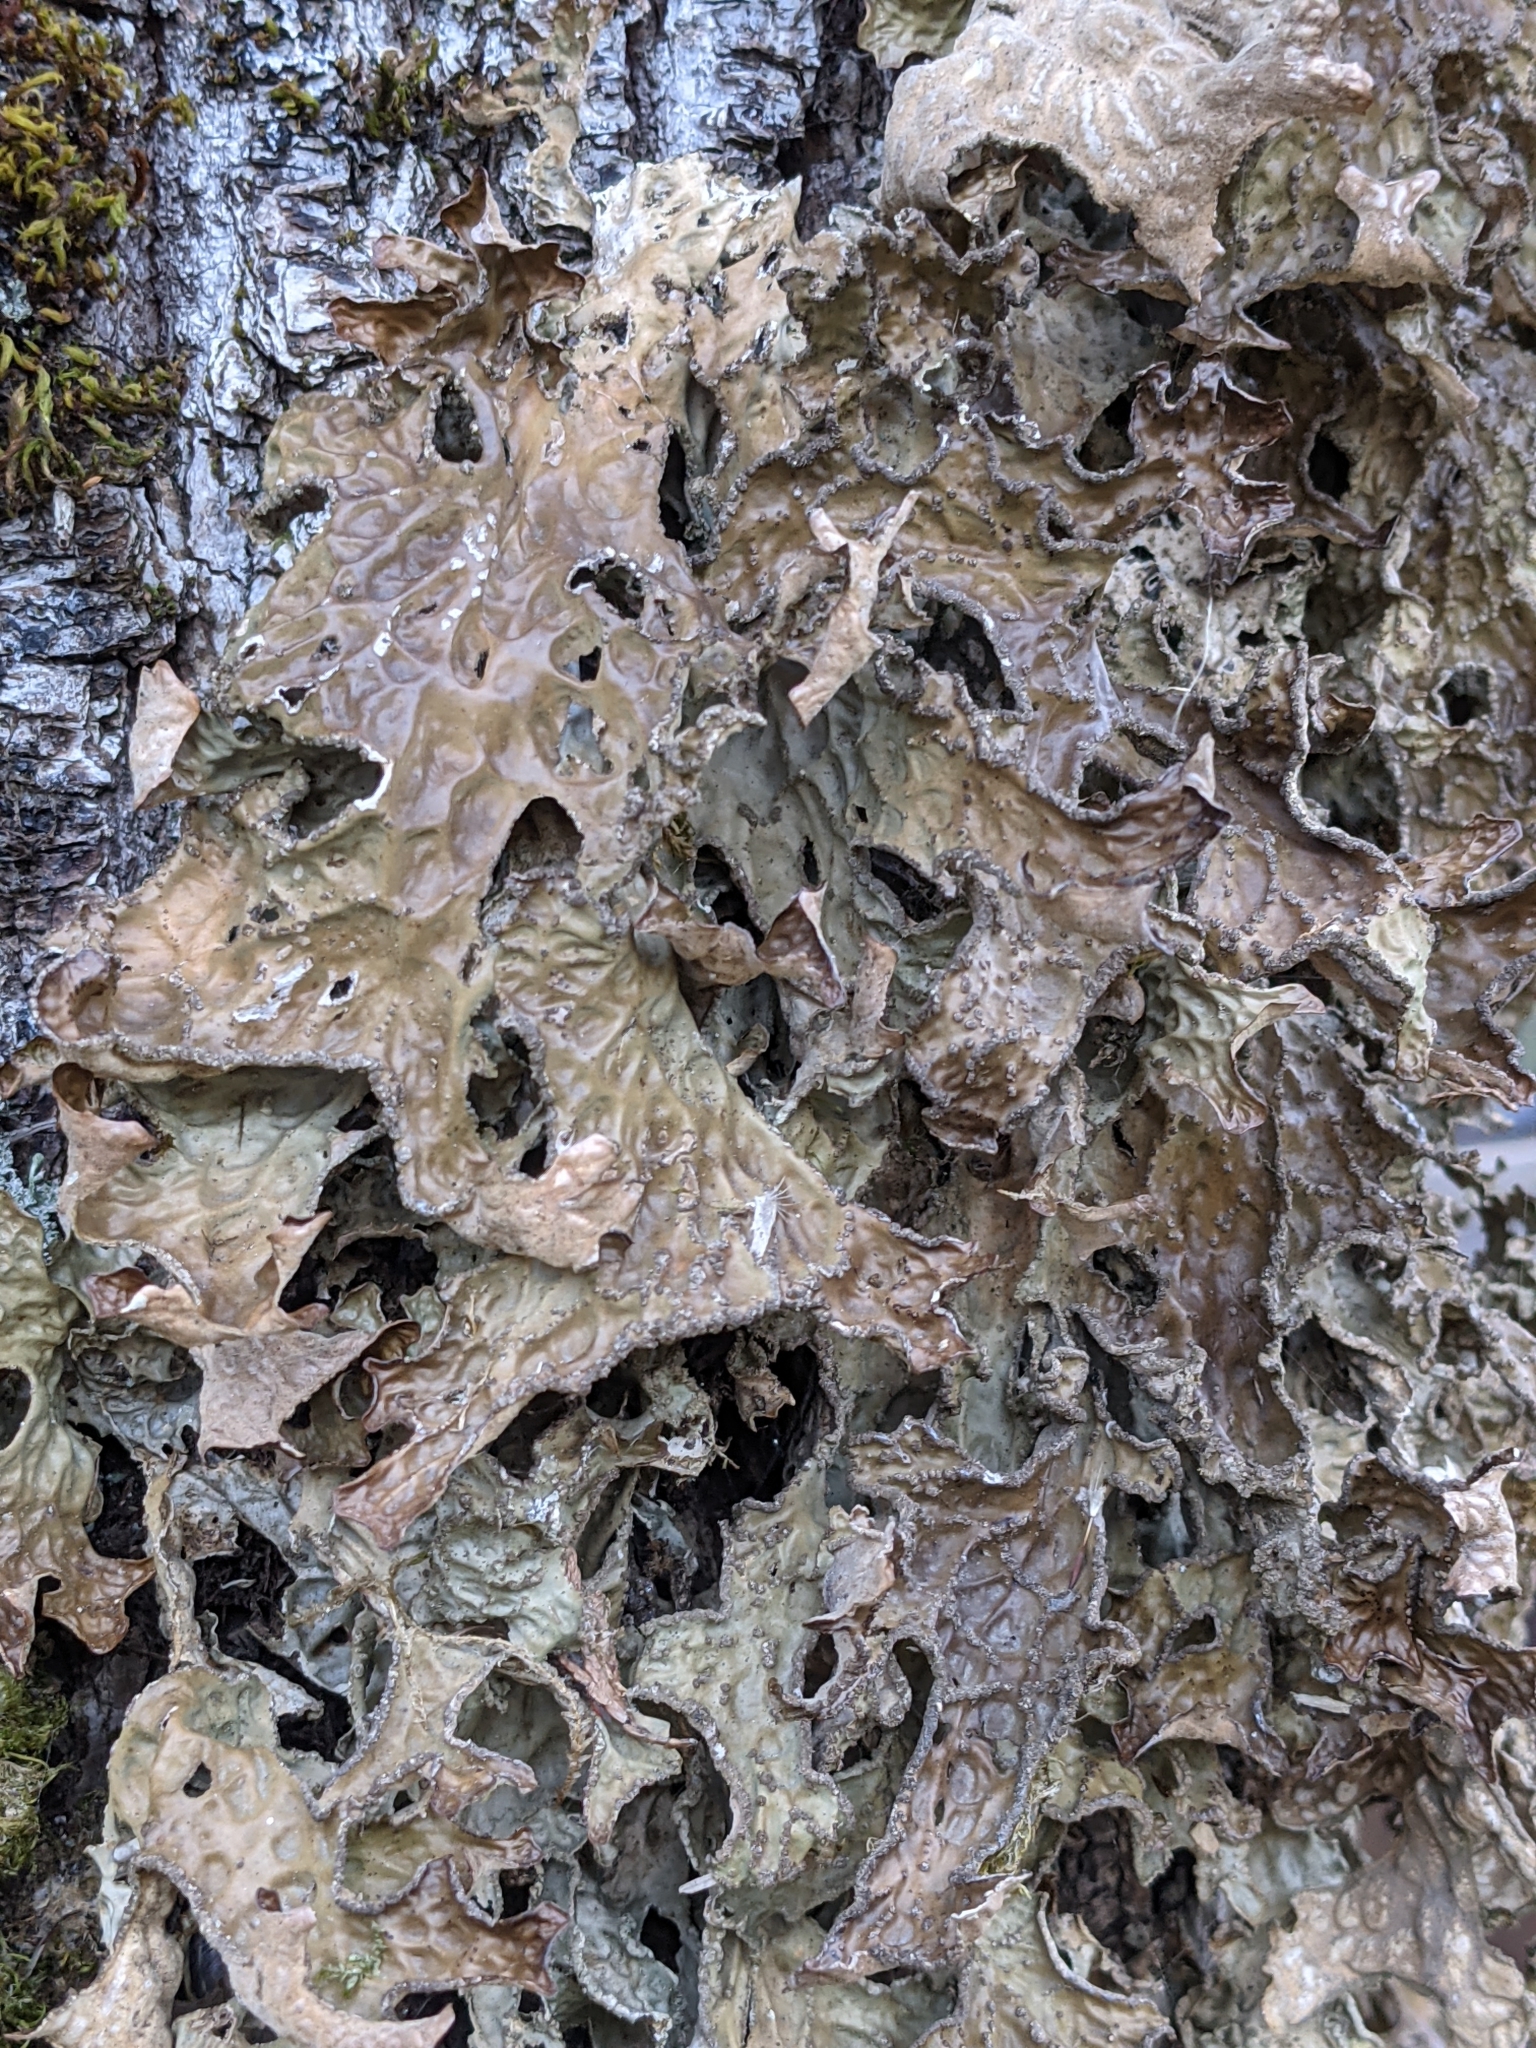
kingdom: Fungi
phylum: Ascomycota
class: Lecanoromycetes
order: Peltigerales
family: Lobariaceae
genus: Lobaria
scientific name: Lobaria pulmonaria
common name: Lungwort
